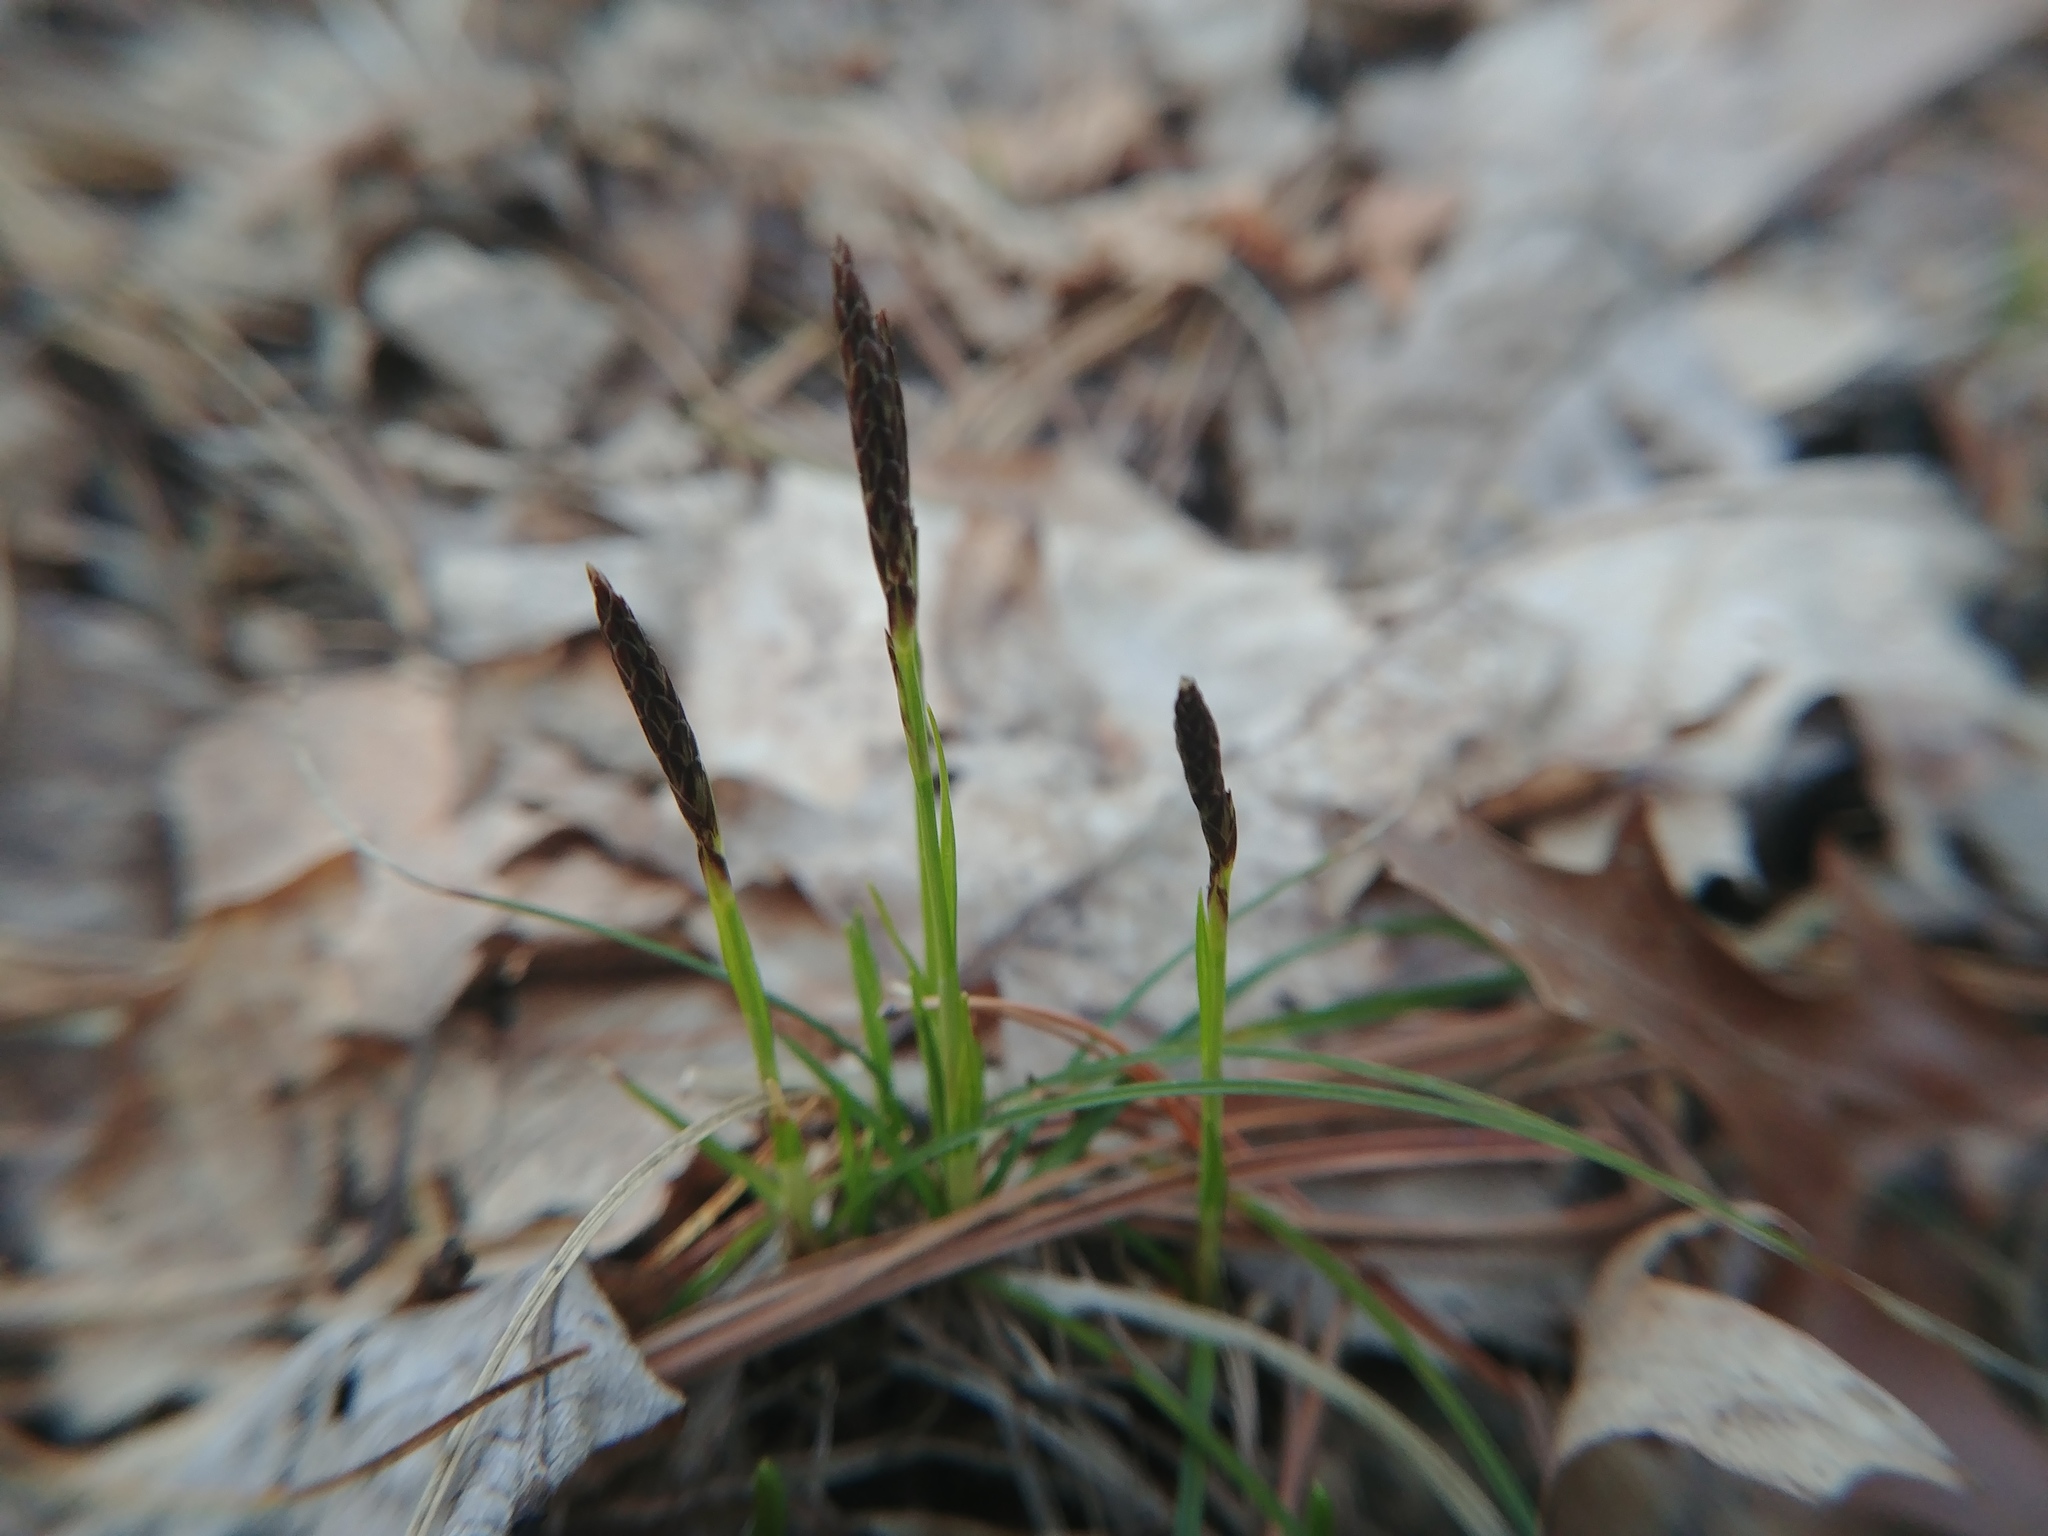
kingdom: Plantae
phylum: Tracheophyta
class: Liliopsida
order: Poales
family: Cyperaceae
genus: Carex
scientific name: Carex pensylvanica
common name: Common oak sedge
